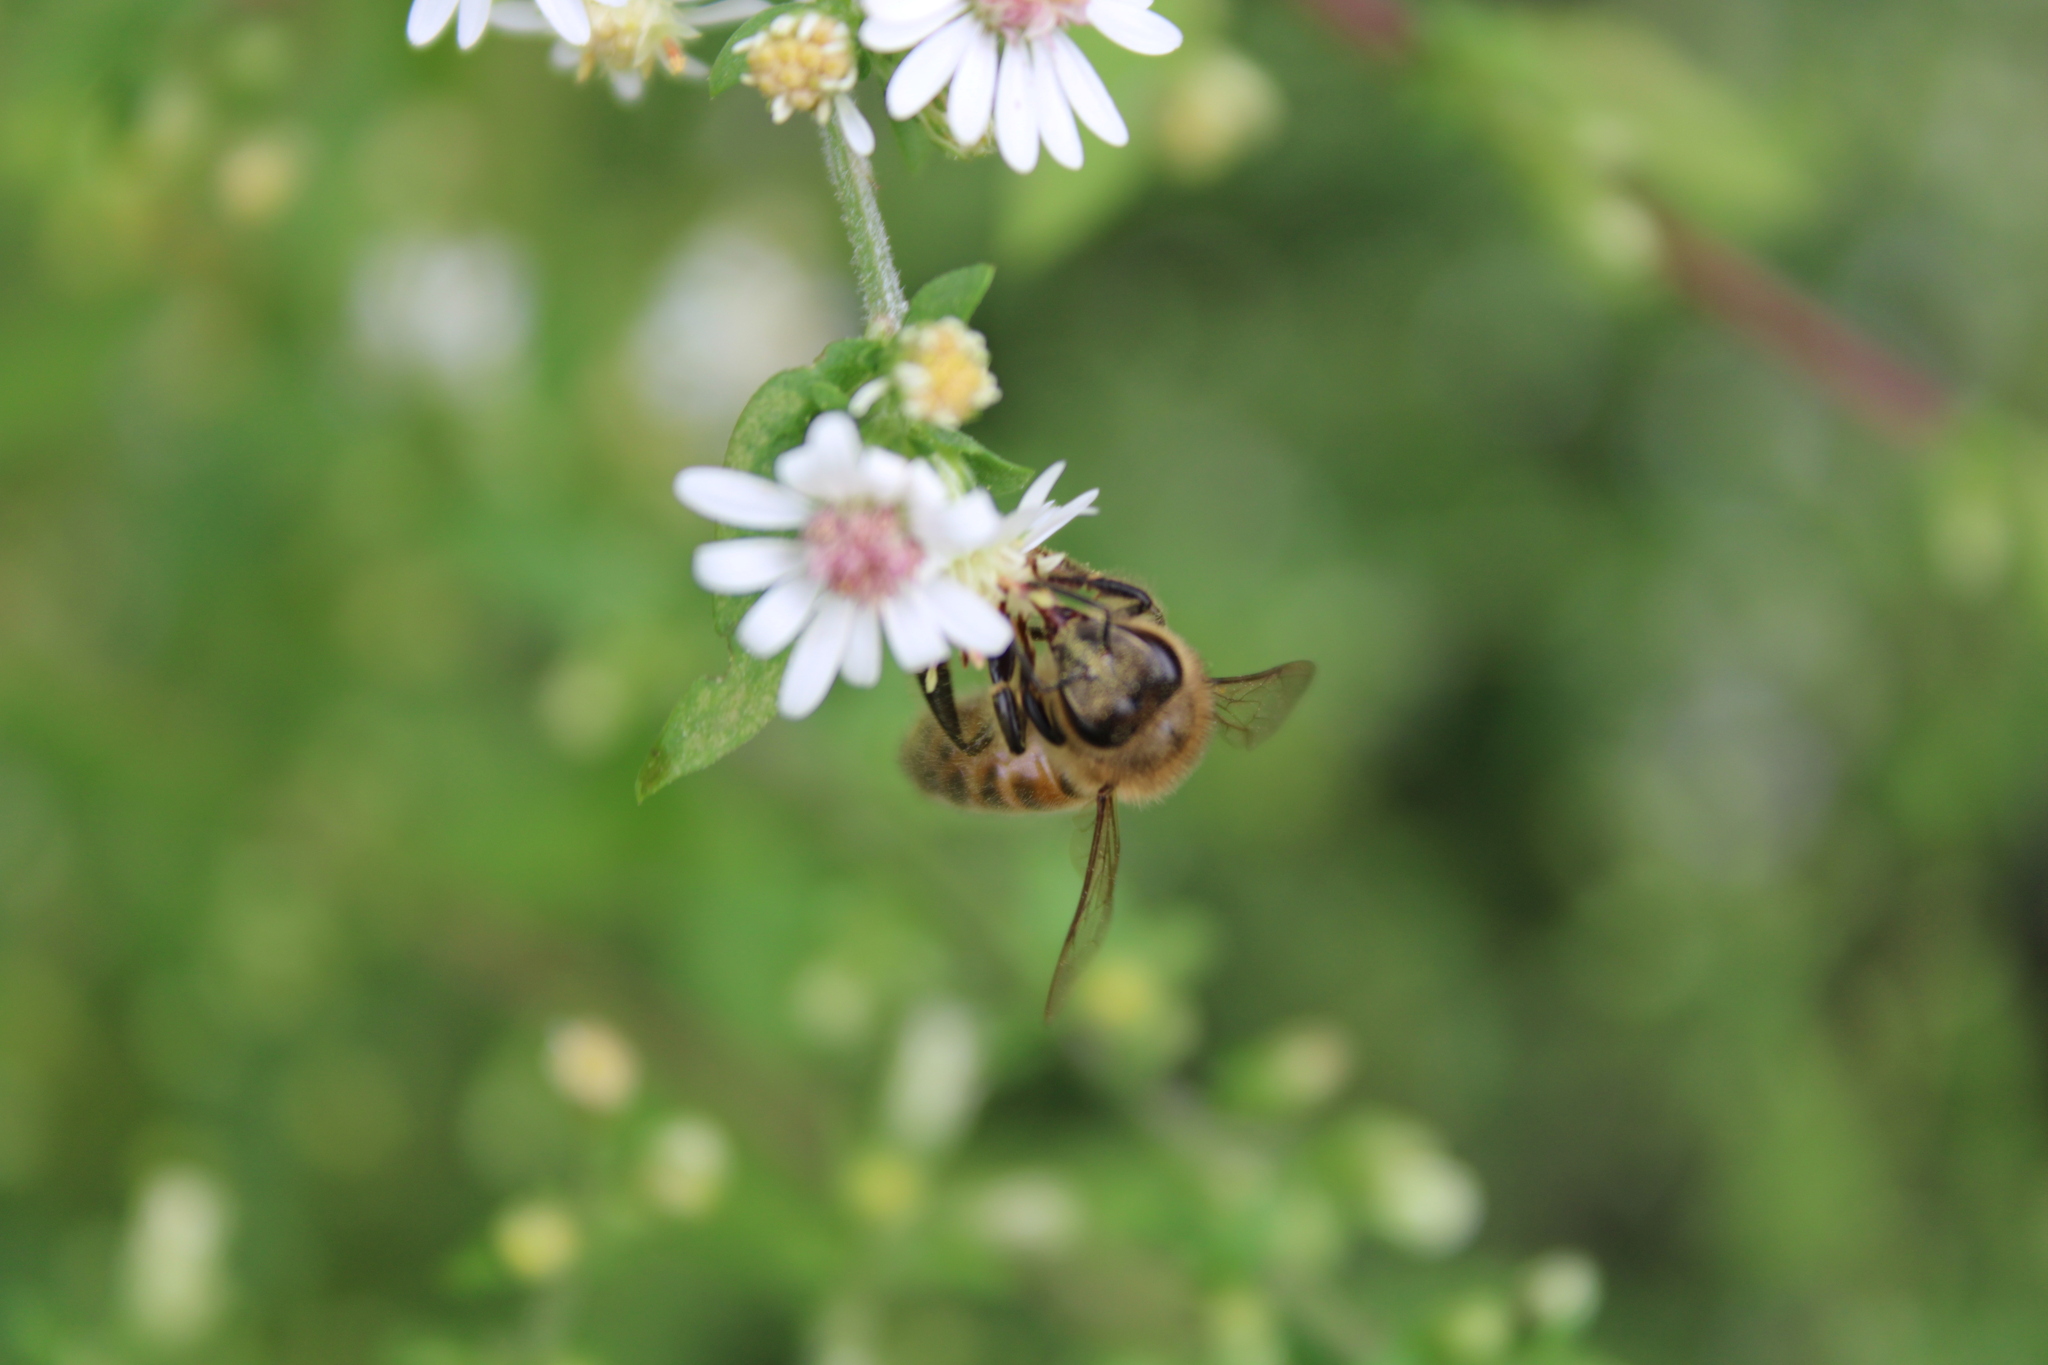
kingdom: Animalia
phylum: Arthropoda
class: Insecta
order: Hymenoptera
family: Apidae
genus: Apis
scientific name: Apis mellifera
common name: Honey bee
